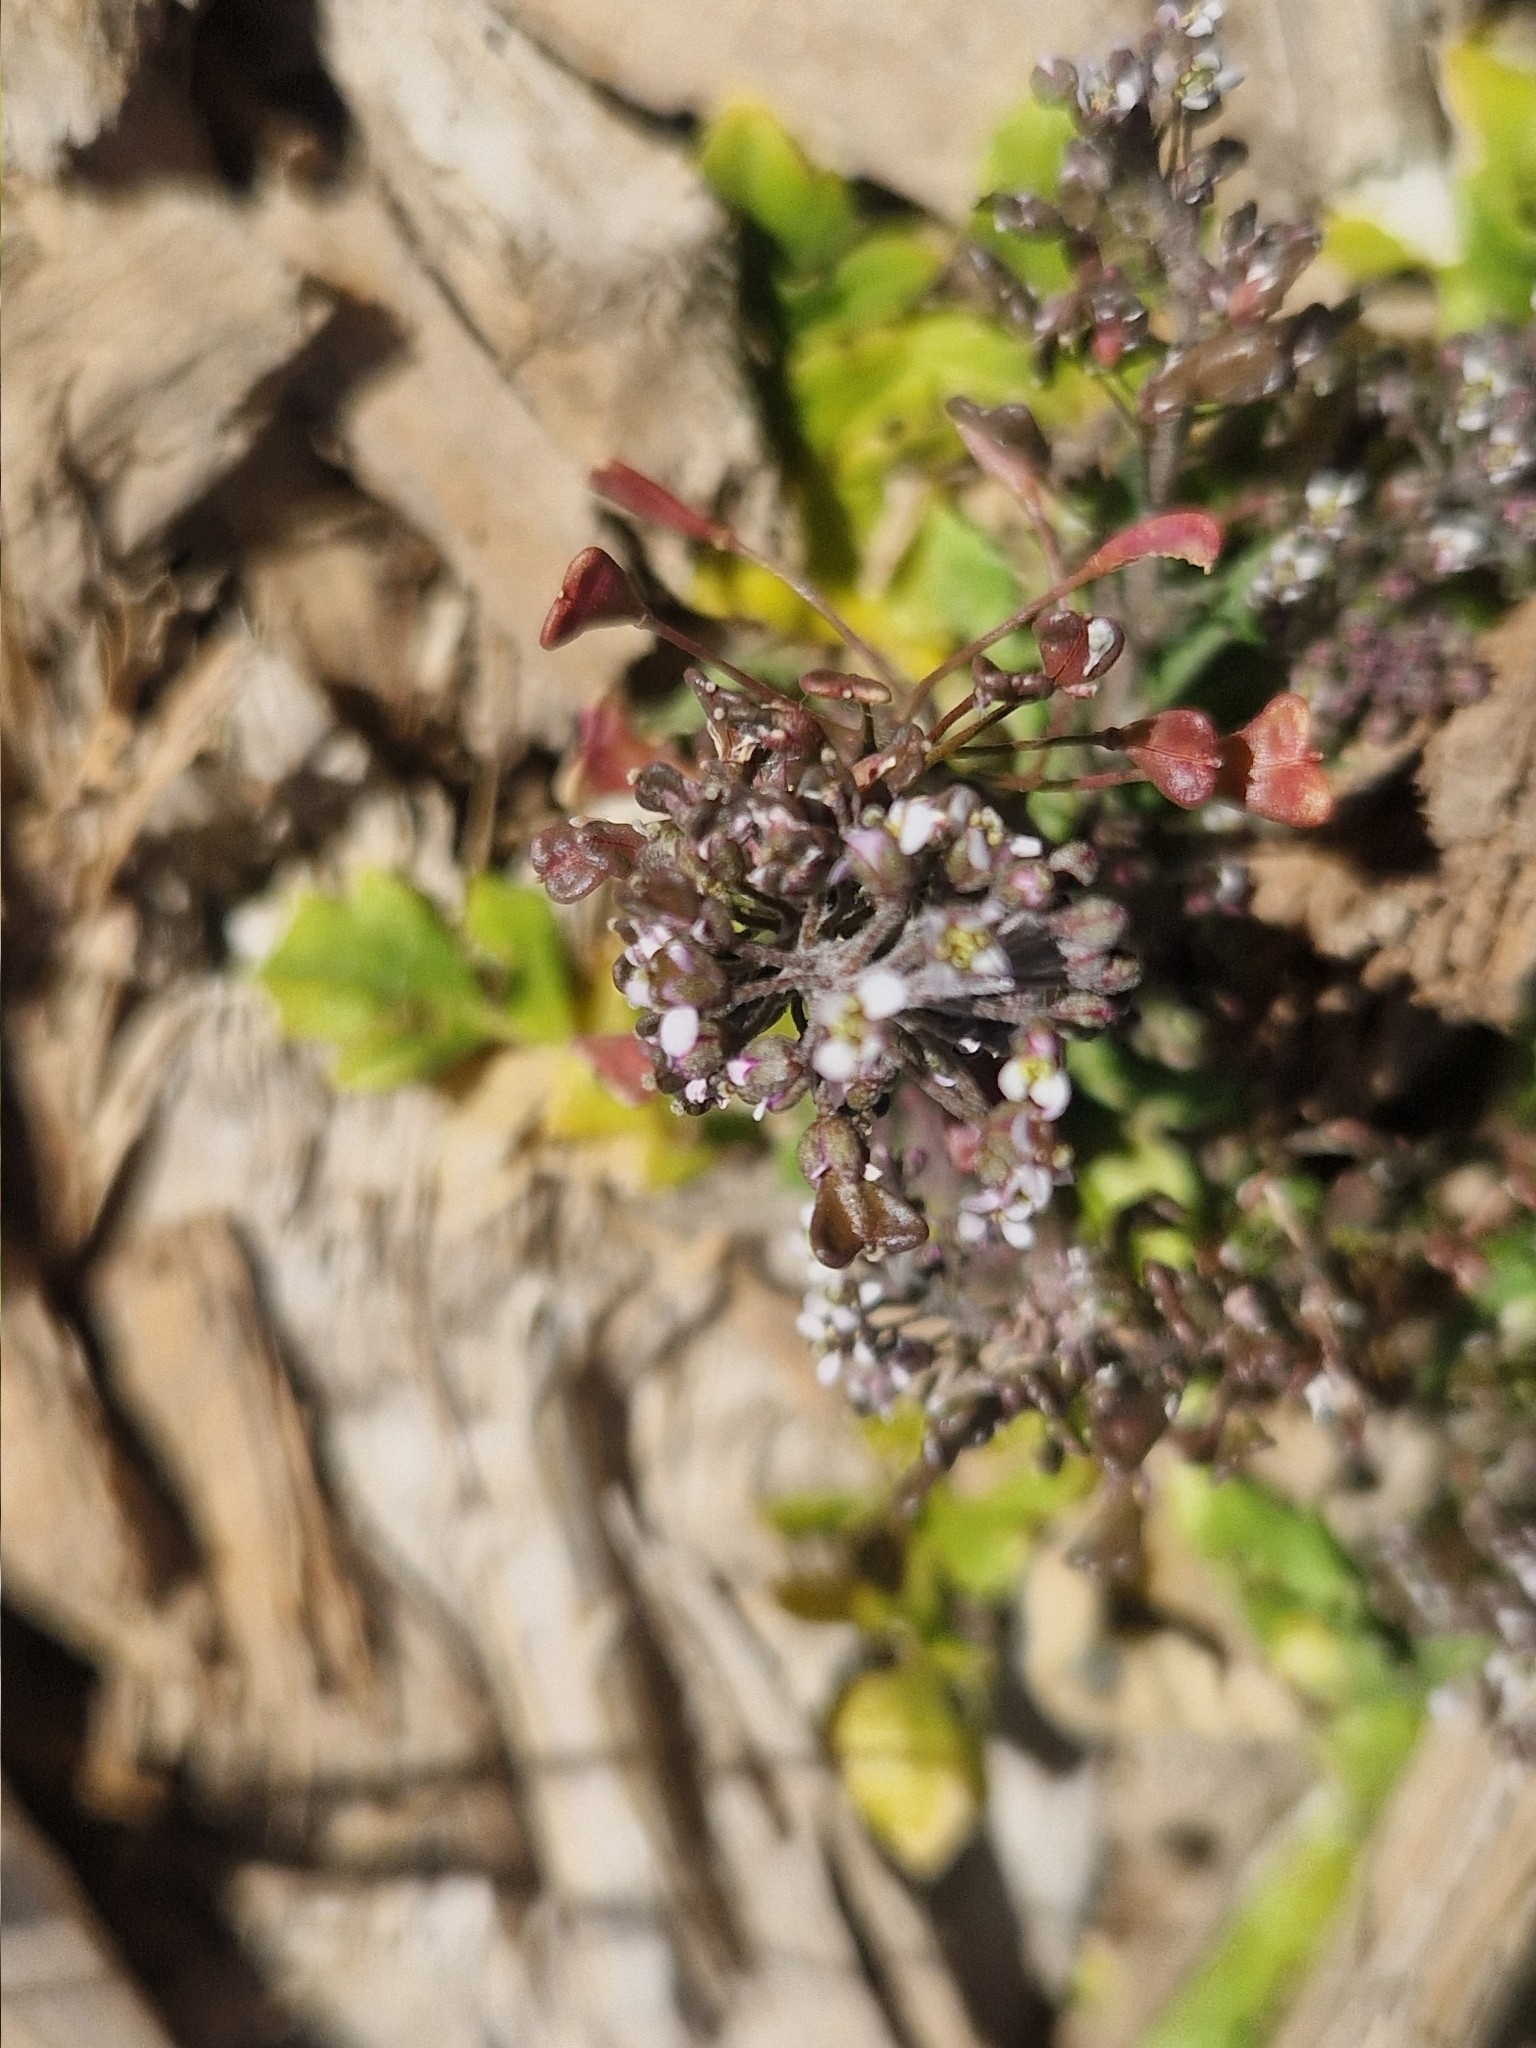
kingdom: Plantae
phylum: Tracheophyta
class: Magnoliopsida
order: Brassicales
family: Brassicaceae
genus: Capsella
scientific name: Capsella bursa-pastoris
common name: Shepherd's purse
